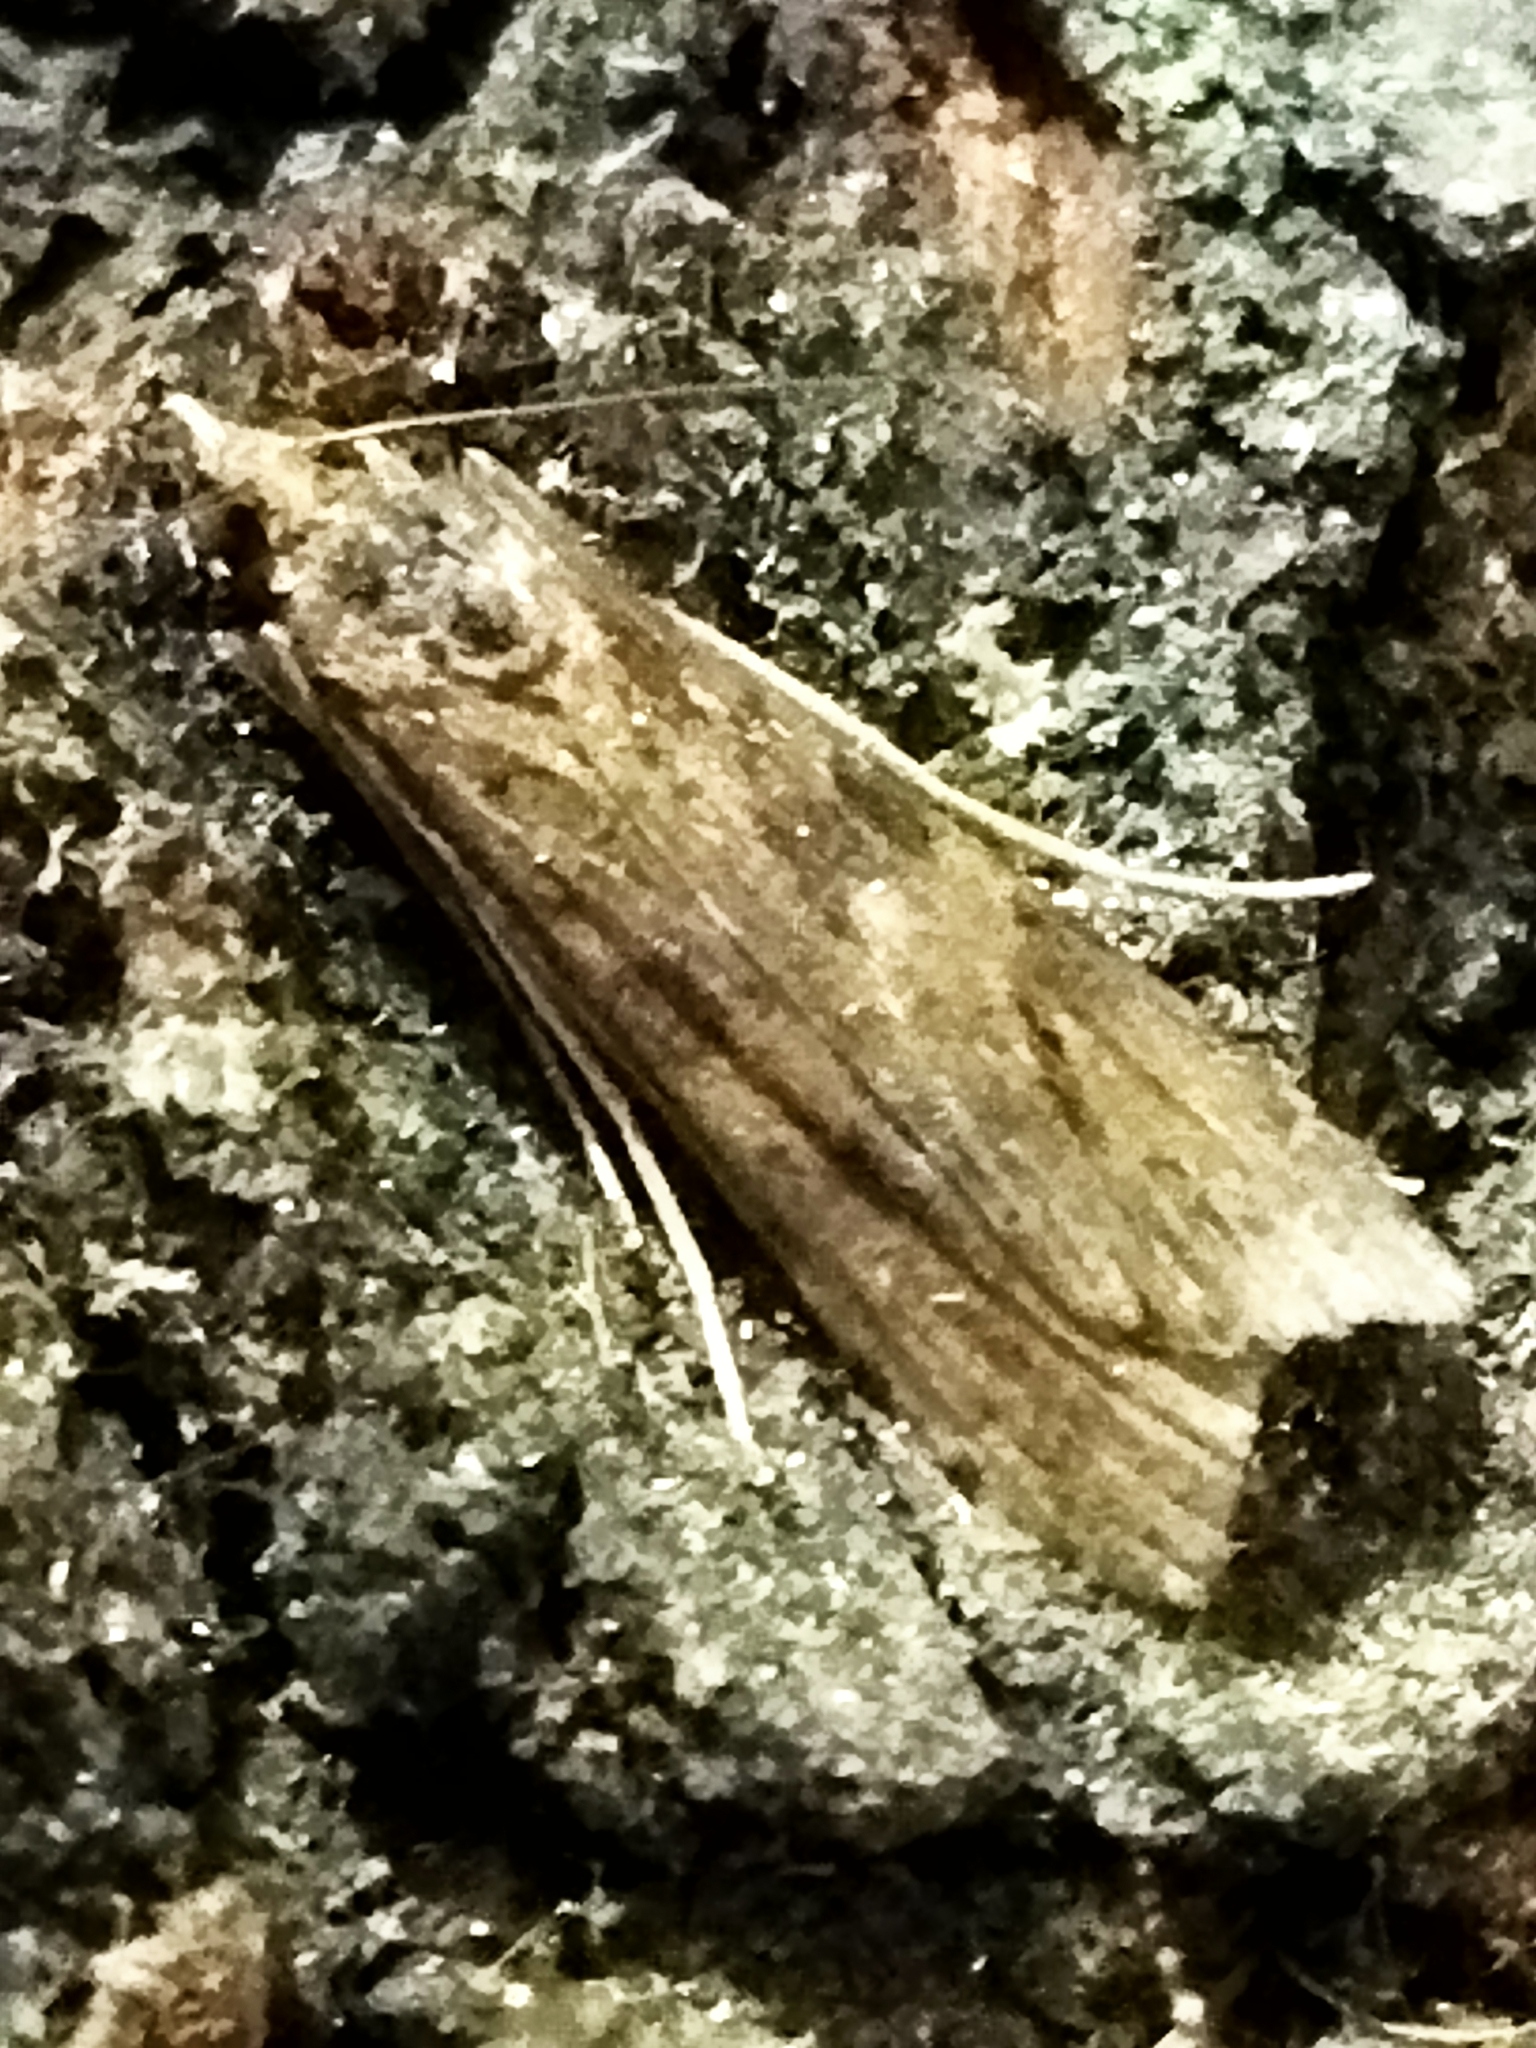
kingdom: Animalia
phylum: Arthropoda
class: Insecta
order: Lepidoptera
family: Crambidae
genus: Nomophila
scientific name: Nomophila noctuella
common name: Rush veneer
